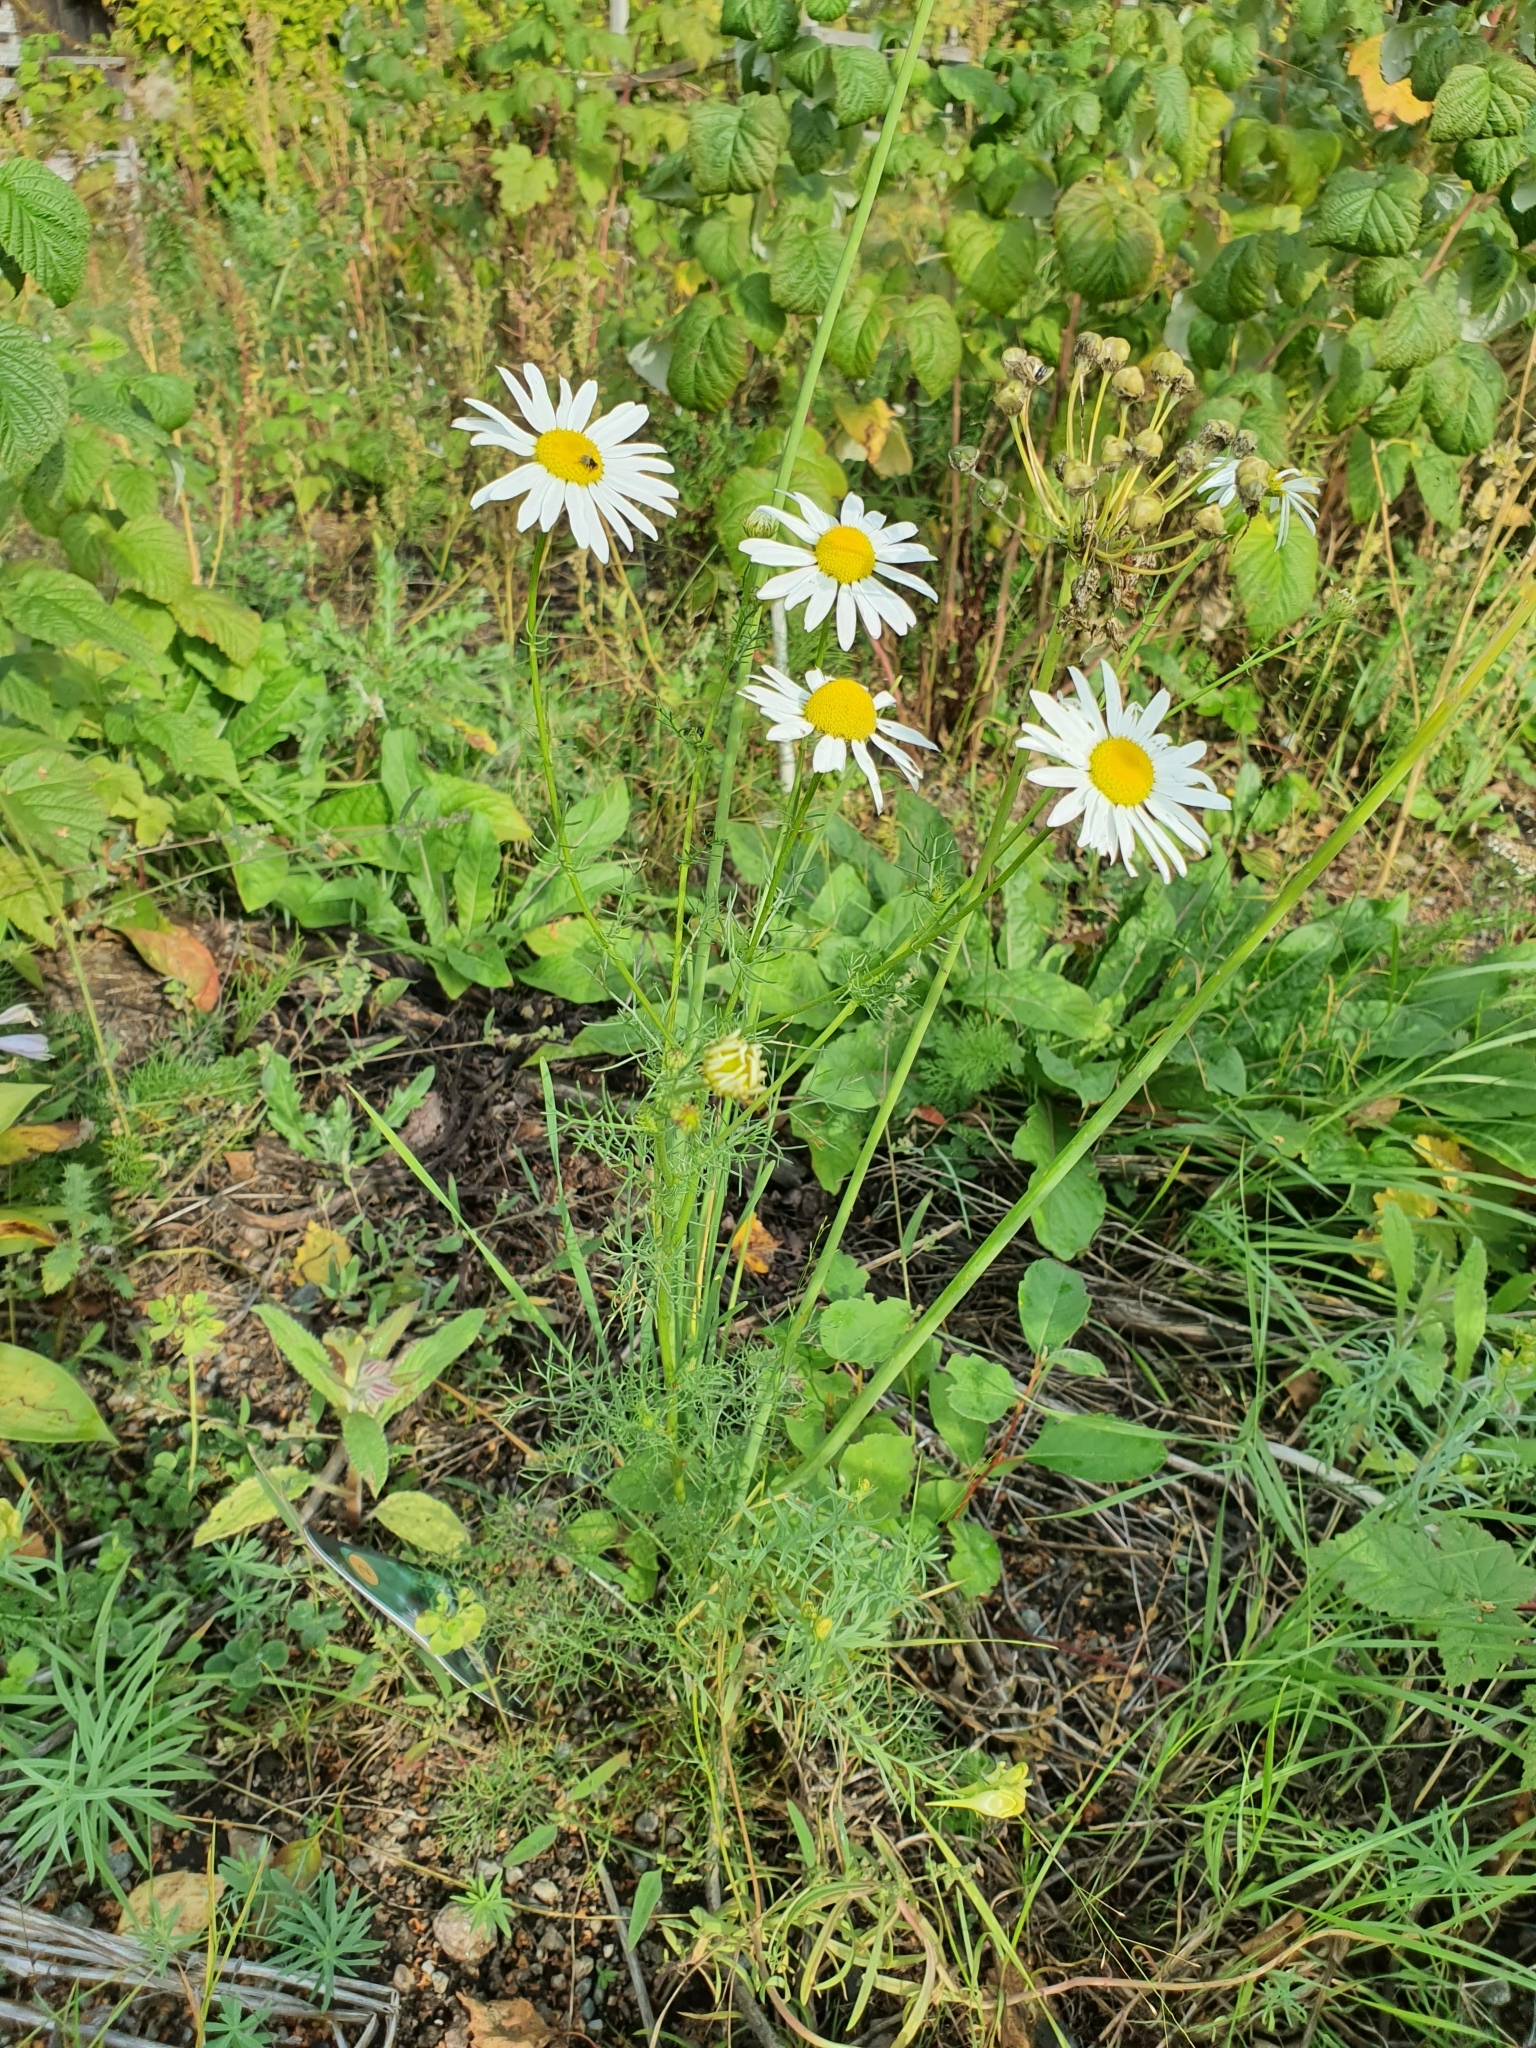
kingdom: Plantae
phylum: Tracheophyta
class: Magnoliopsida
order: Asterales
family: Asteraceae
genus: Tripleurospermum
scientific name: Tripleurospermum inodorum
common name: Scentless mayweed
